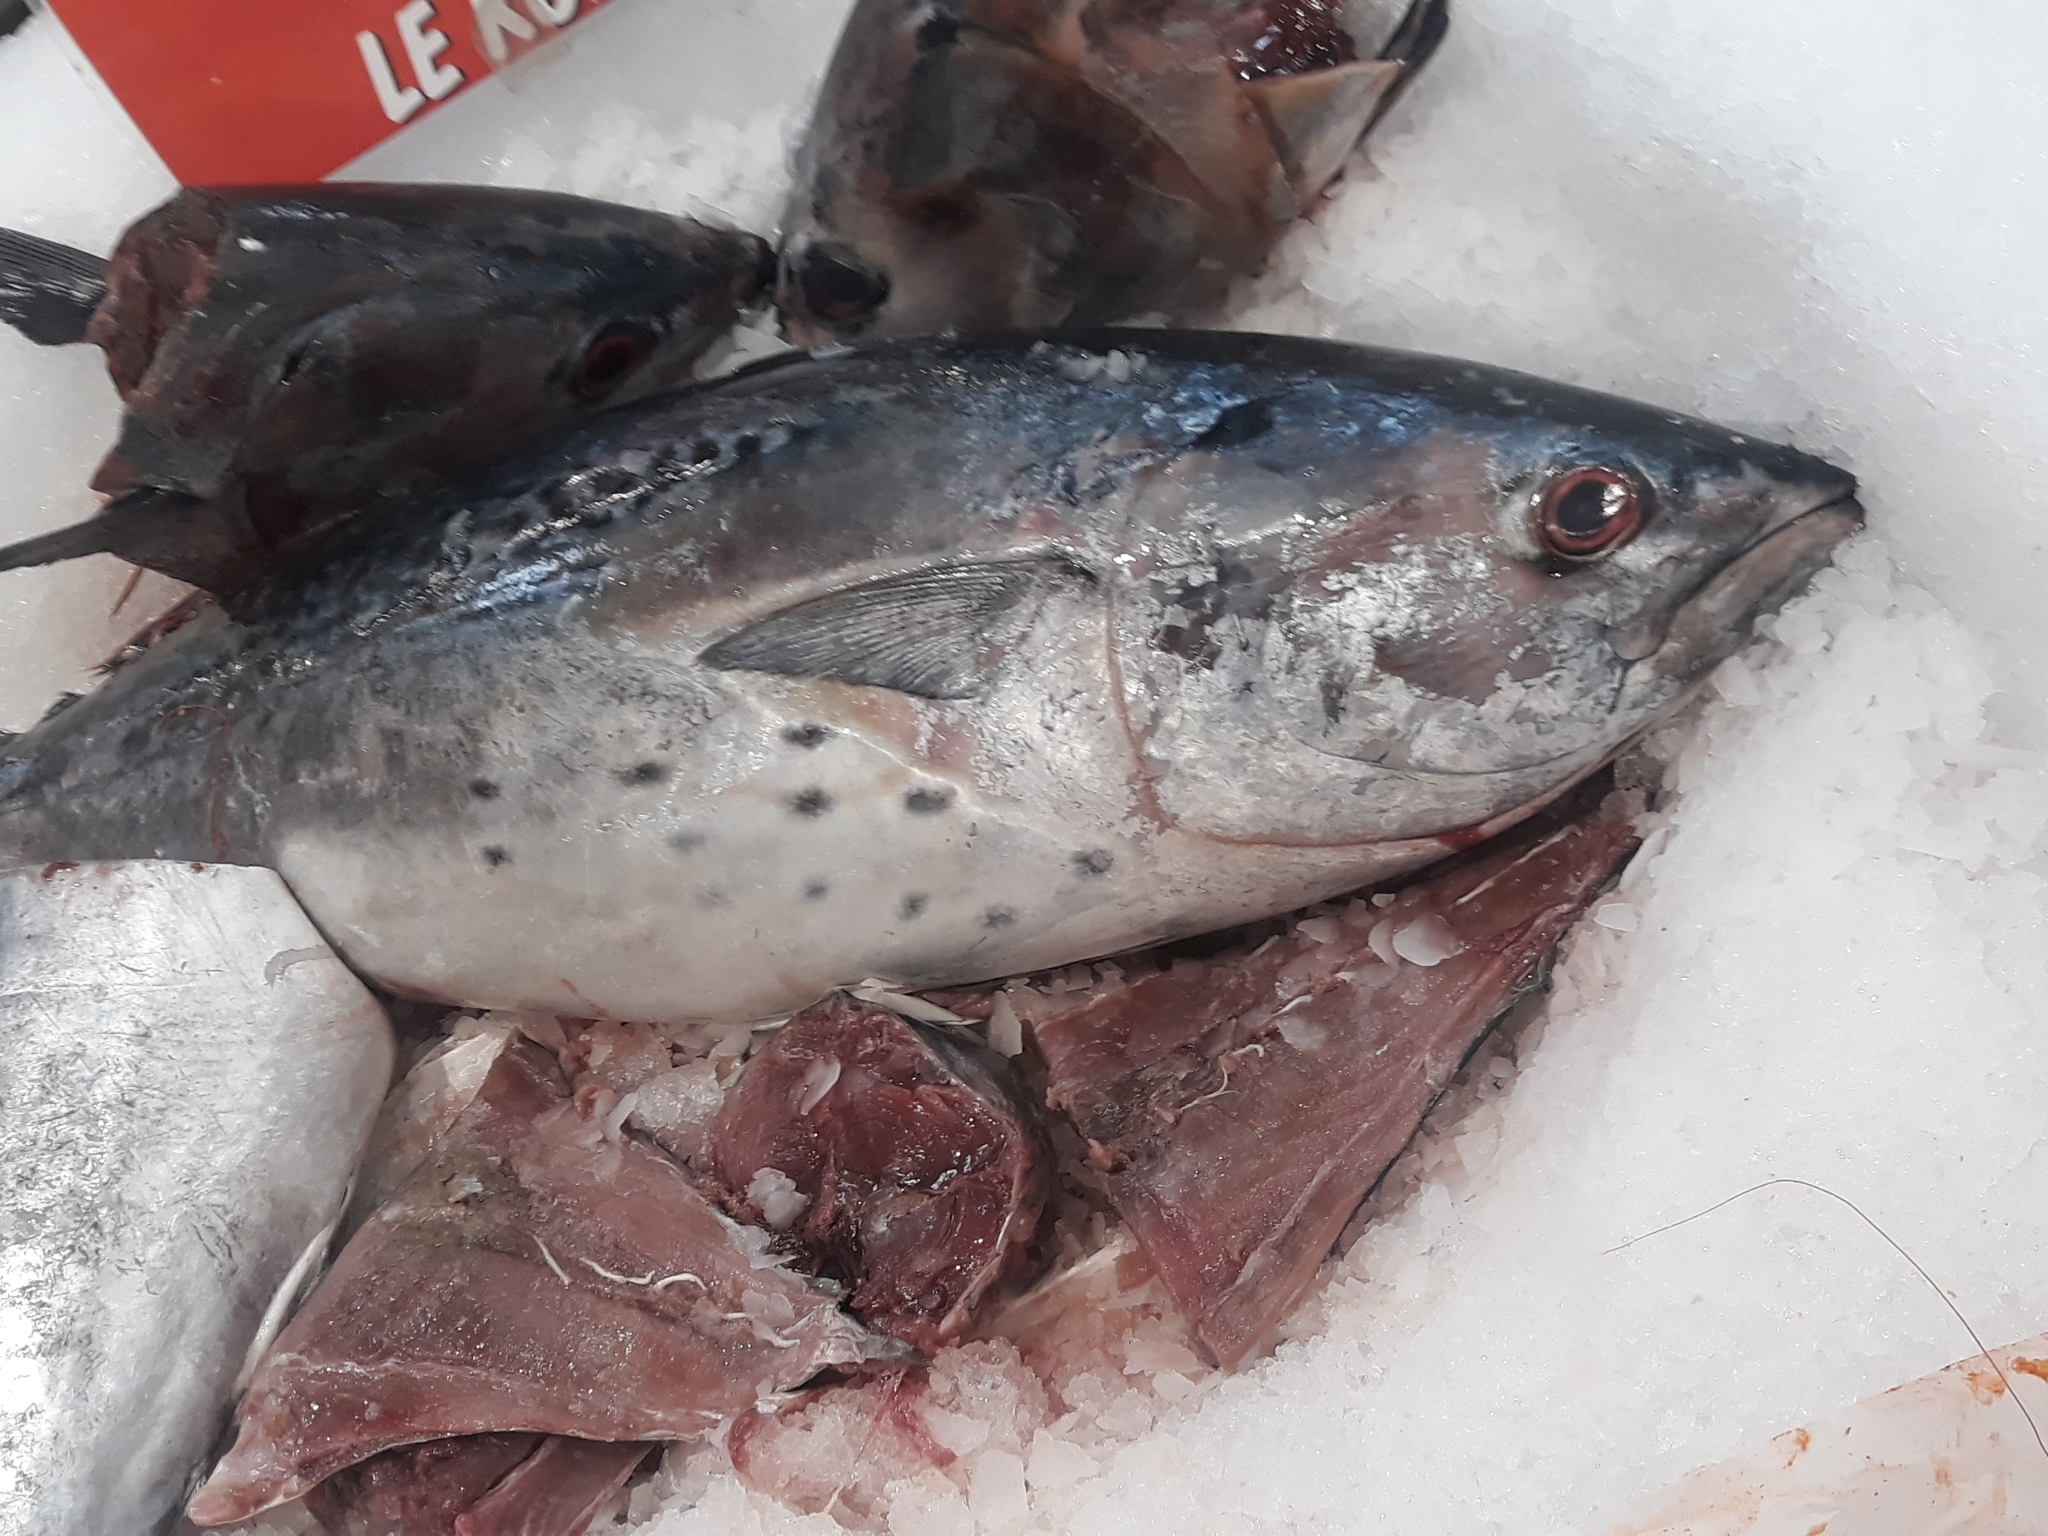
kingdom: Animalia
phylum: Chordata
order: Perciformes
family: Scombridae
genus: Euthynnus
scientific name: Euthynnus alletteratus
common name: Little tunny
